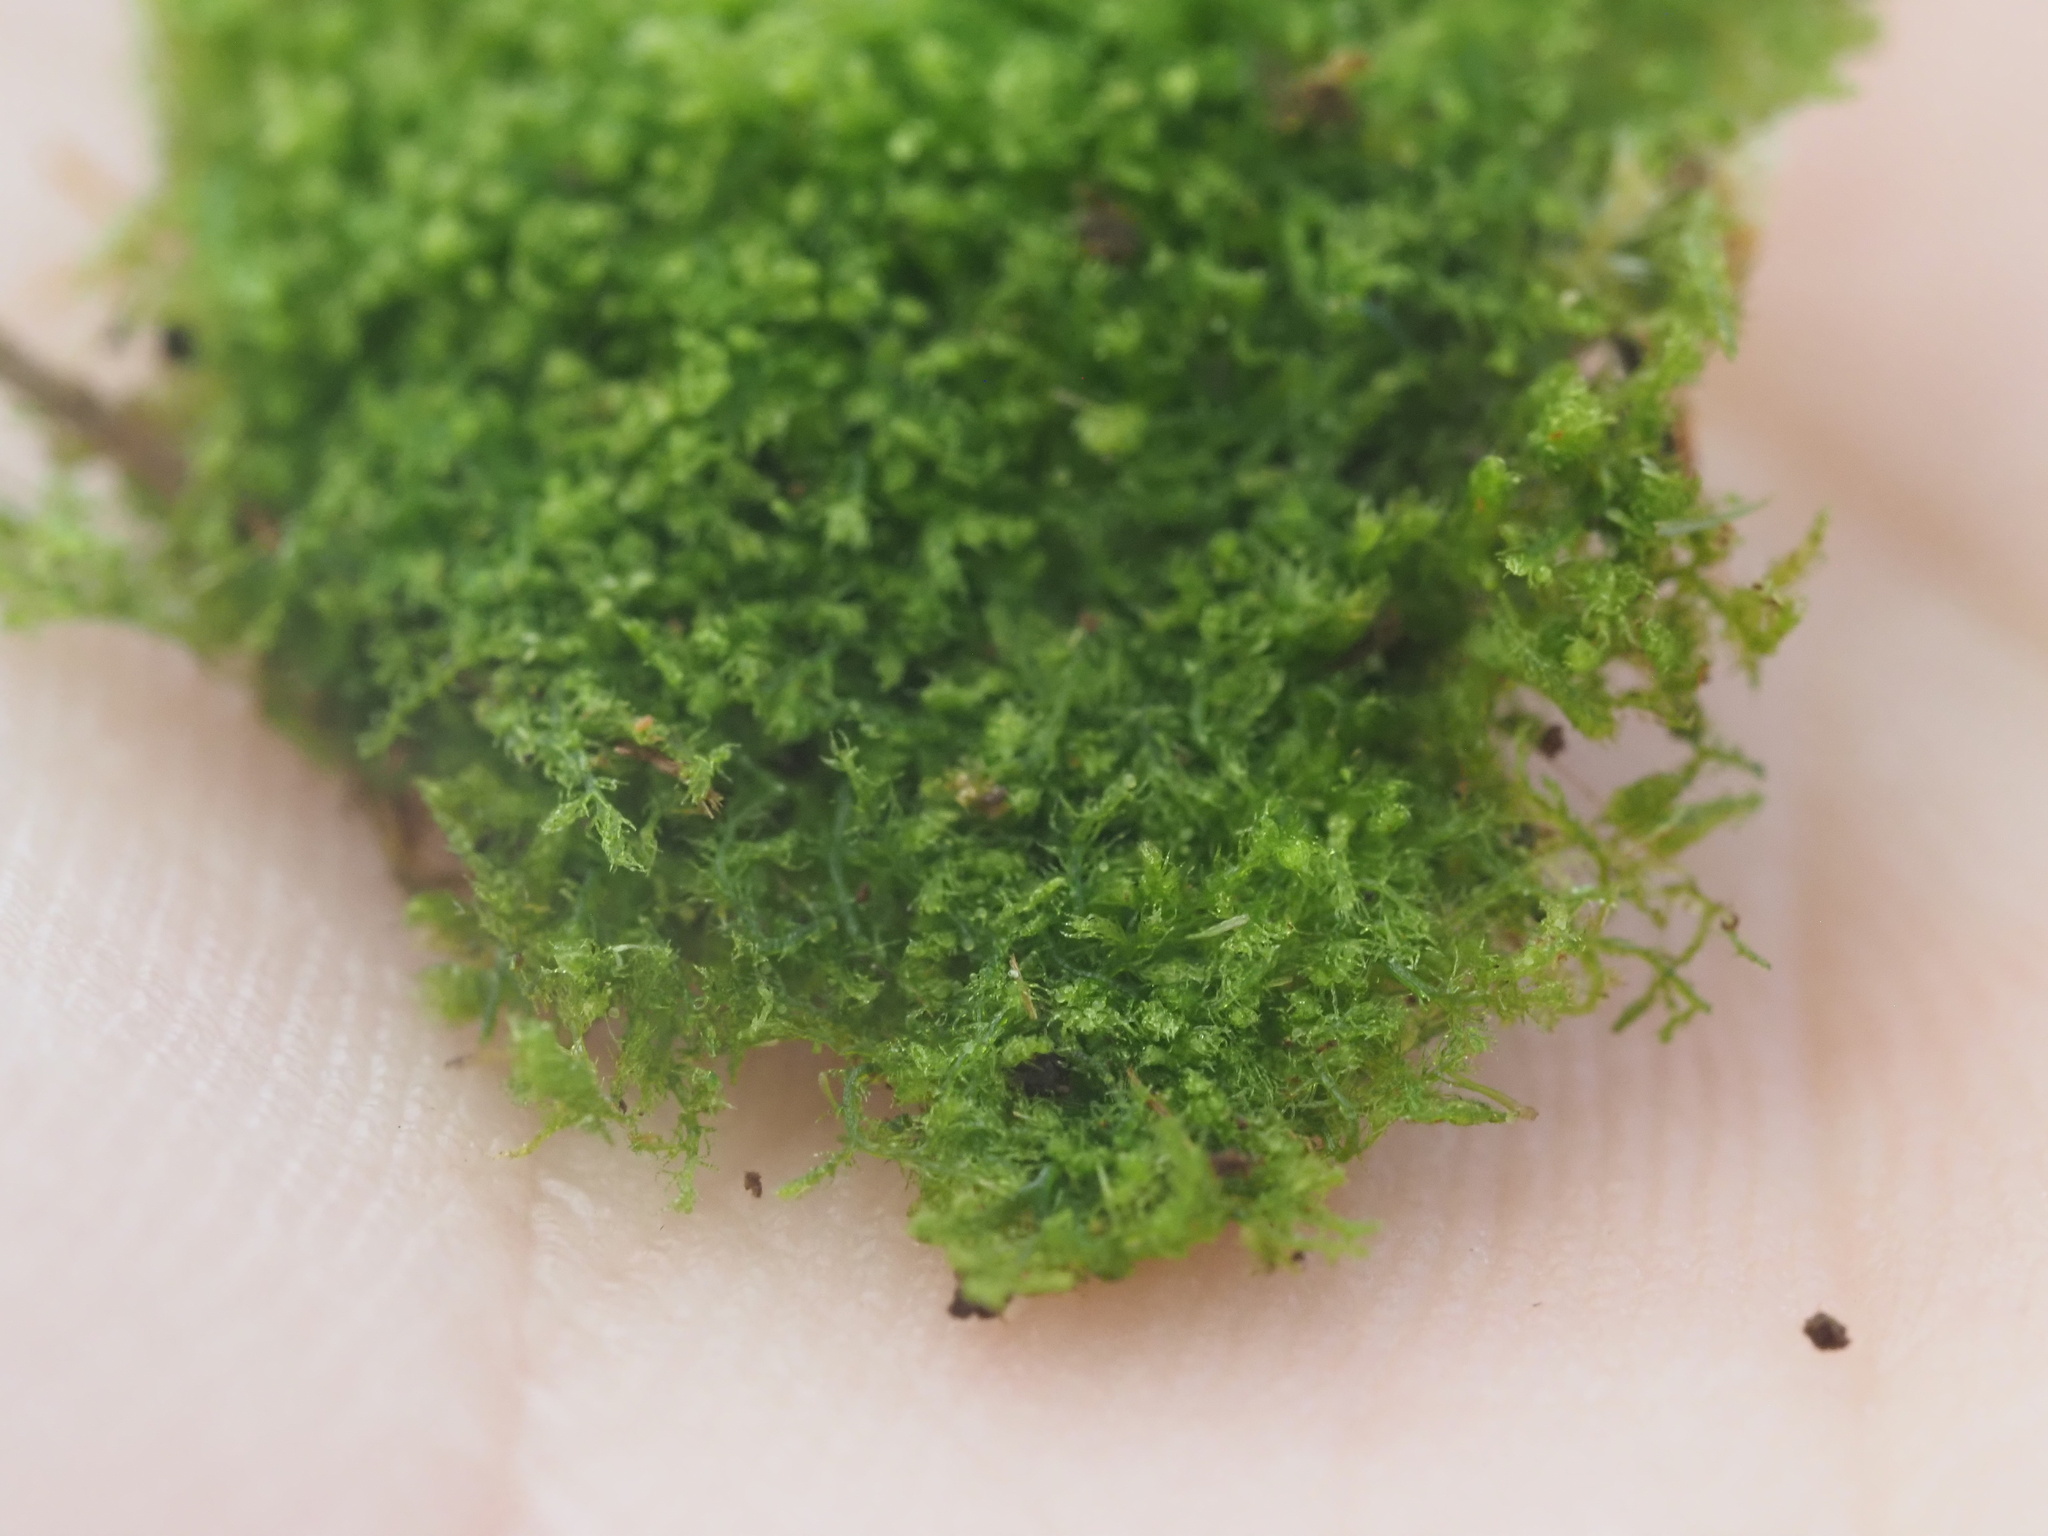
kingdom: Plantae
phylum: Marchantiophyta
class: Jungermanniopsida
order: Jungermanniales
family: Lepidoziaceae
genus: Telaranea
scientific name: Telaranea nematodes
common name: Irish threadwort
